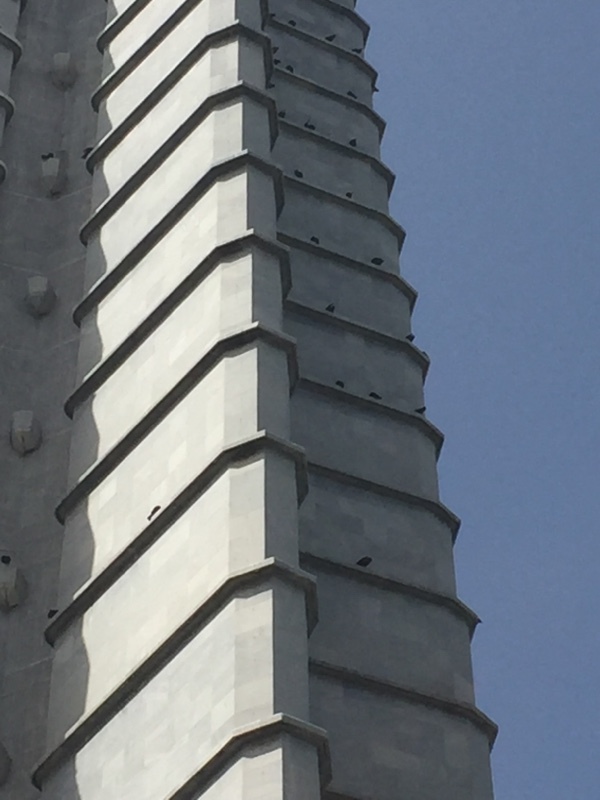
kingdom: Animalia
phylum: Chordata
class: Aves
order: Accipitriformes
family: Cathartidae
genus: Cathartes
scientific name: Cathartes aura
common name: Turkey vulture
